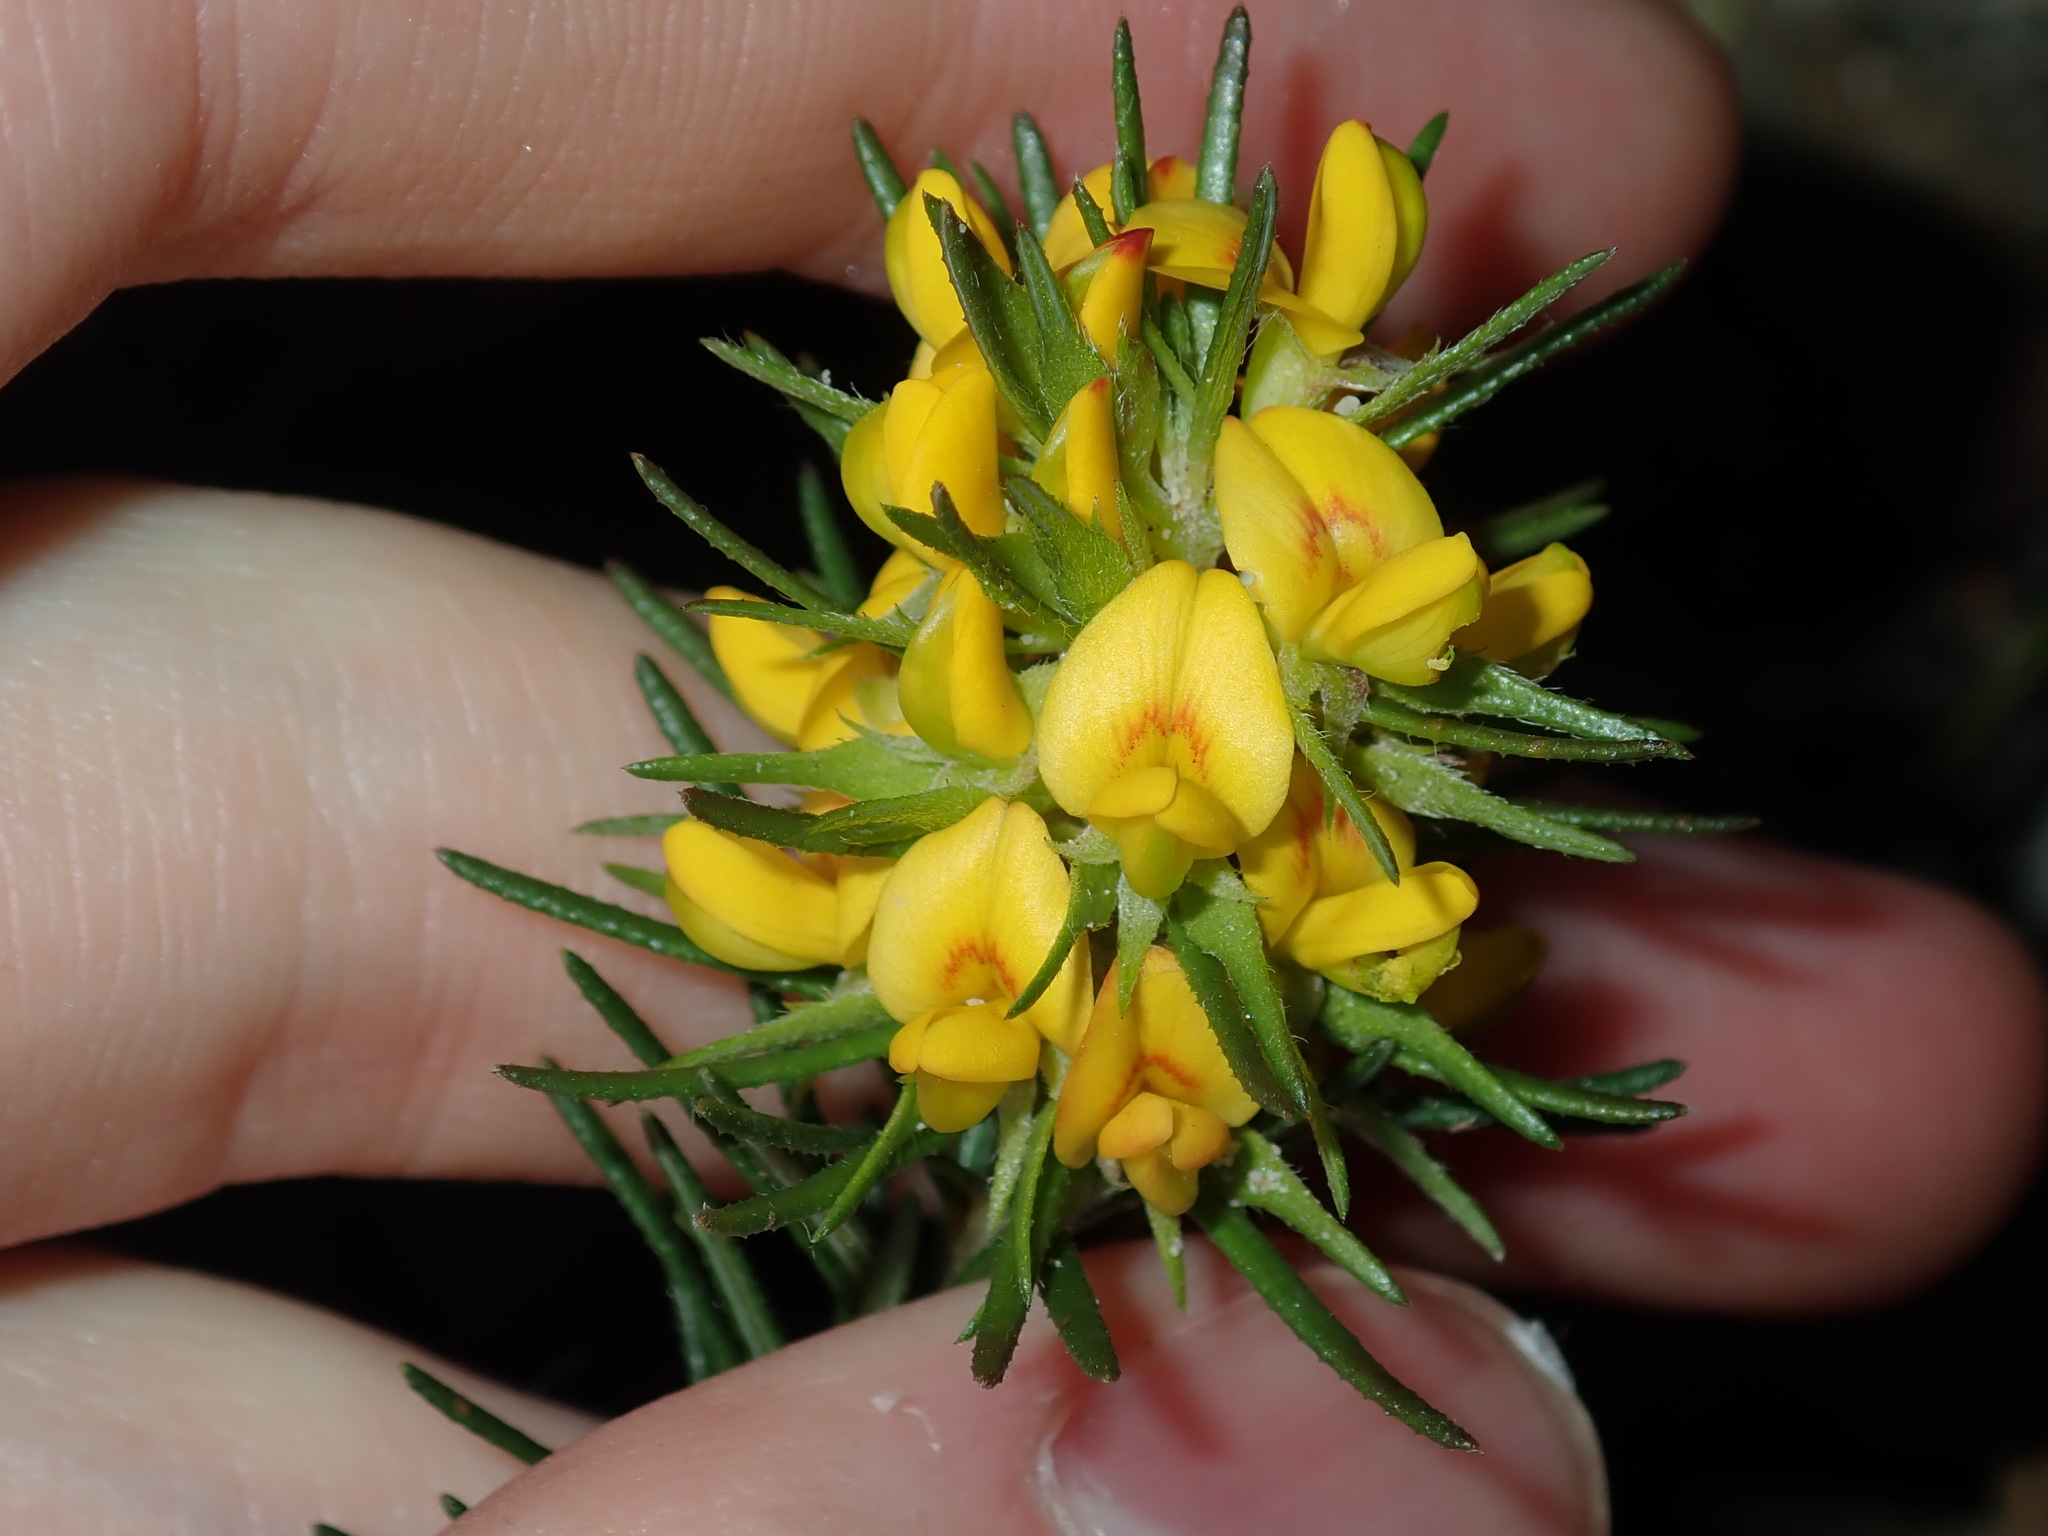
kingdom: Plantae
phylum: Tracheophyta
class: Magnoliopsida
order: Fabales
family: Fabaceae
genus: Phyllota
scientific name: Phyllota phylicoides
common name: Heath phyllota
